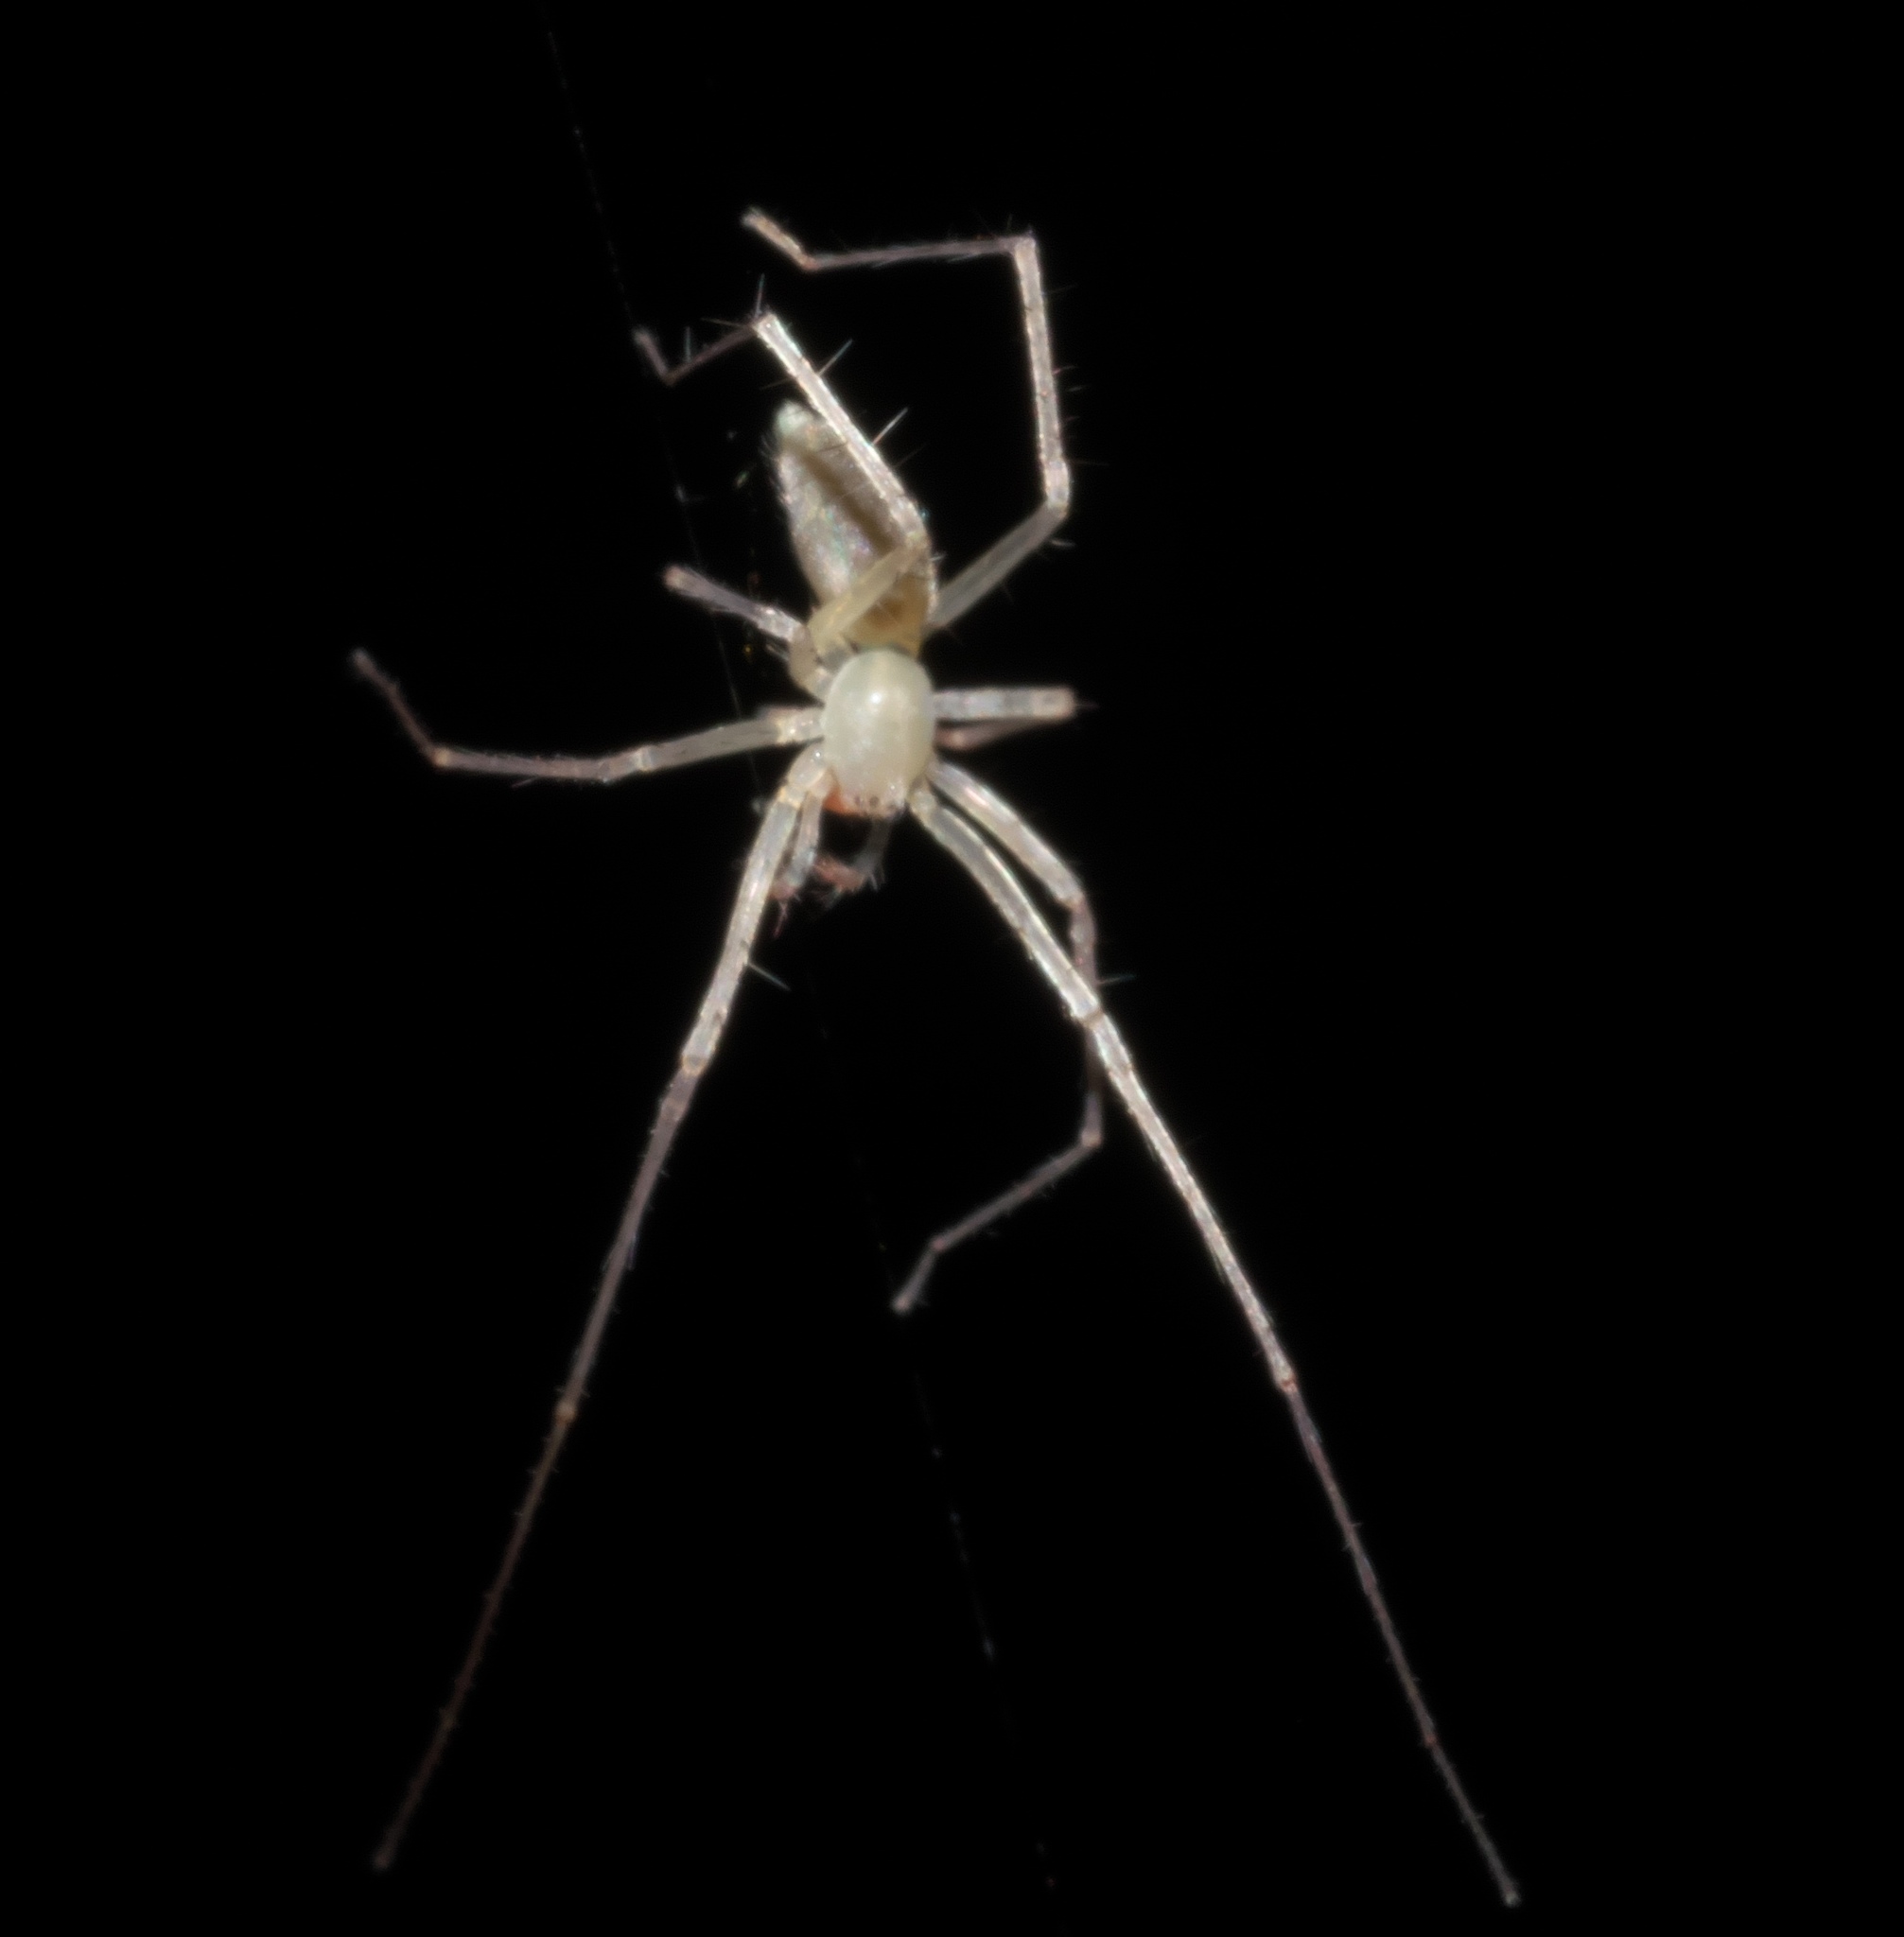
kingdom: Animalia
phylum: Arthropoda
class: Arachnida
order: Araneae
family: Anyphaenidae
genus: Wulfila
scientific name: Wulfila albens
